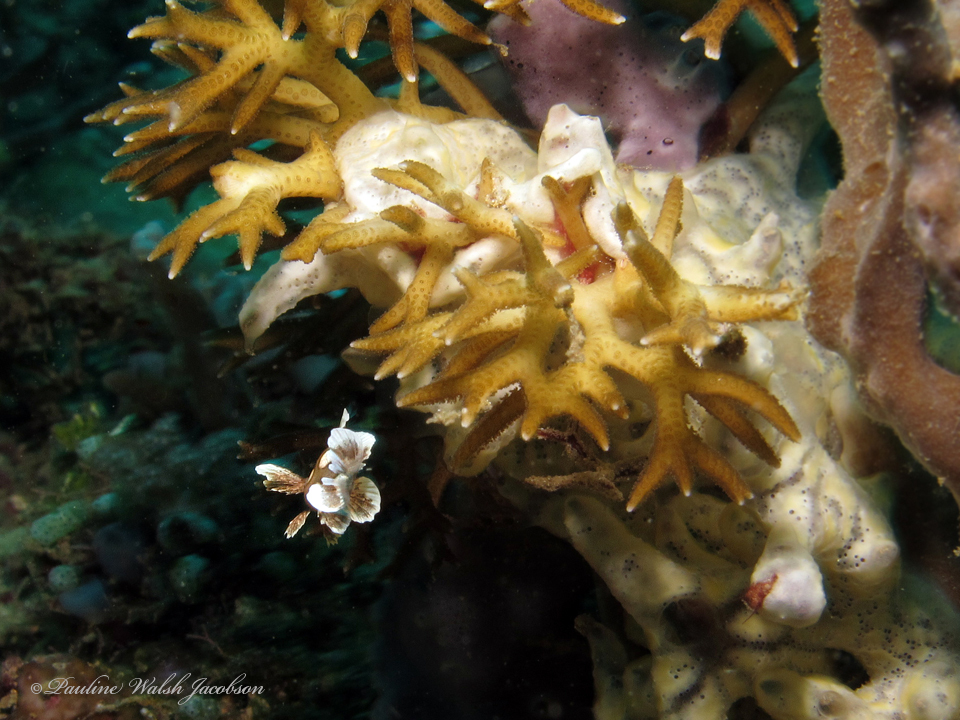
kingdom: Animalia
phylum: Chordata
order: Perciformes
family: Haemulidae
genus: Plectorhinchus
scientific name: Plectorhinchus chaetodonoides
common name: Harlequin sweetlips
